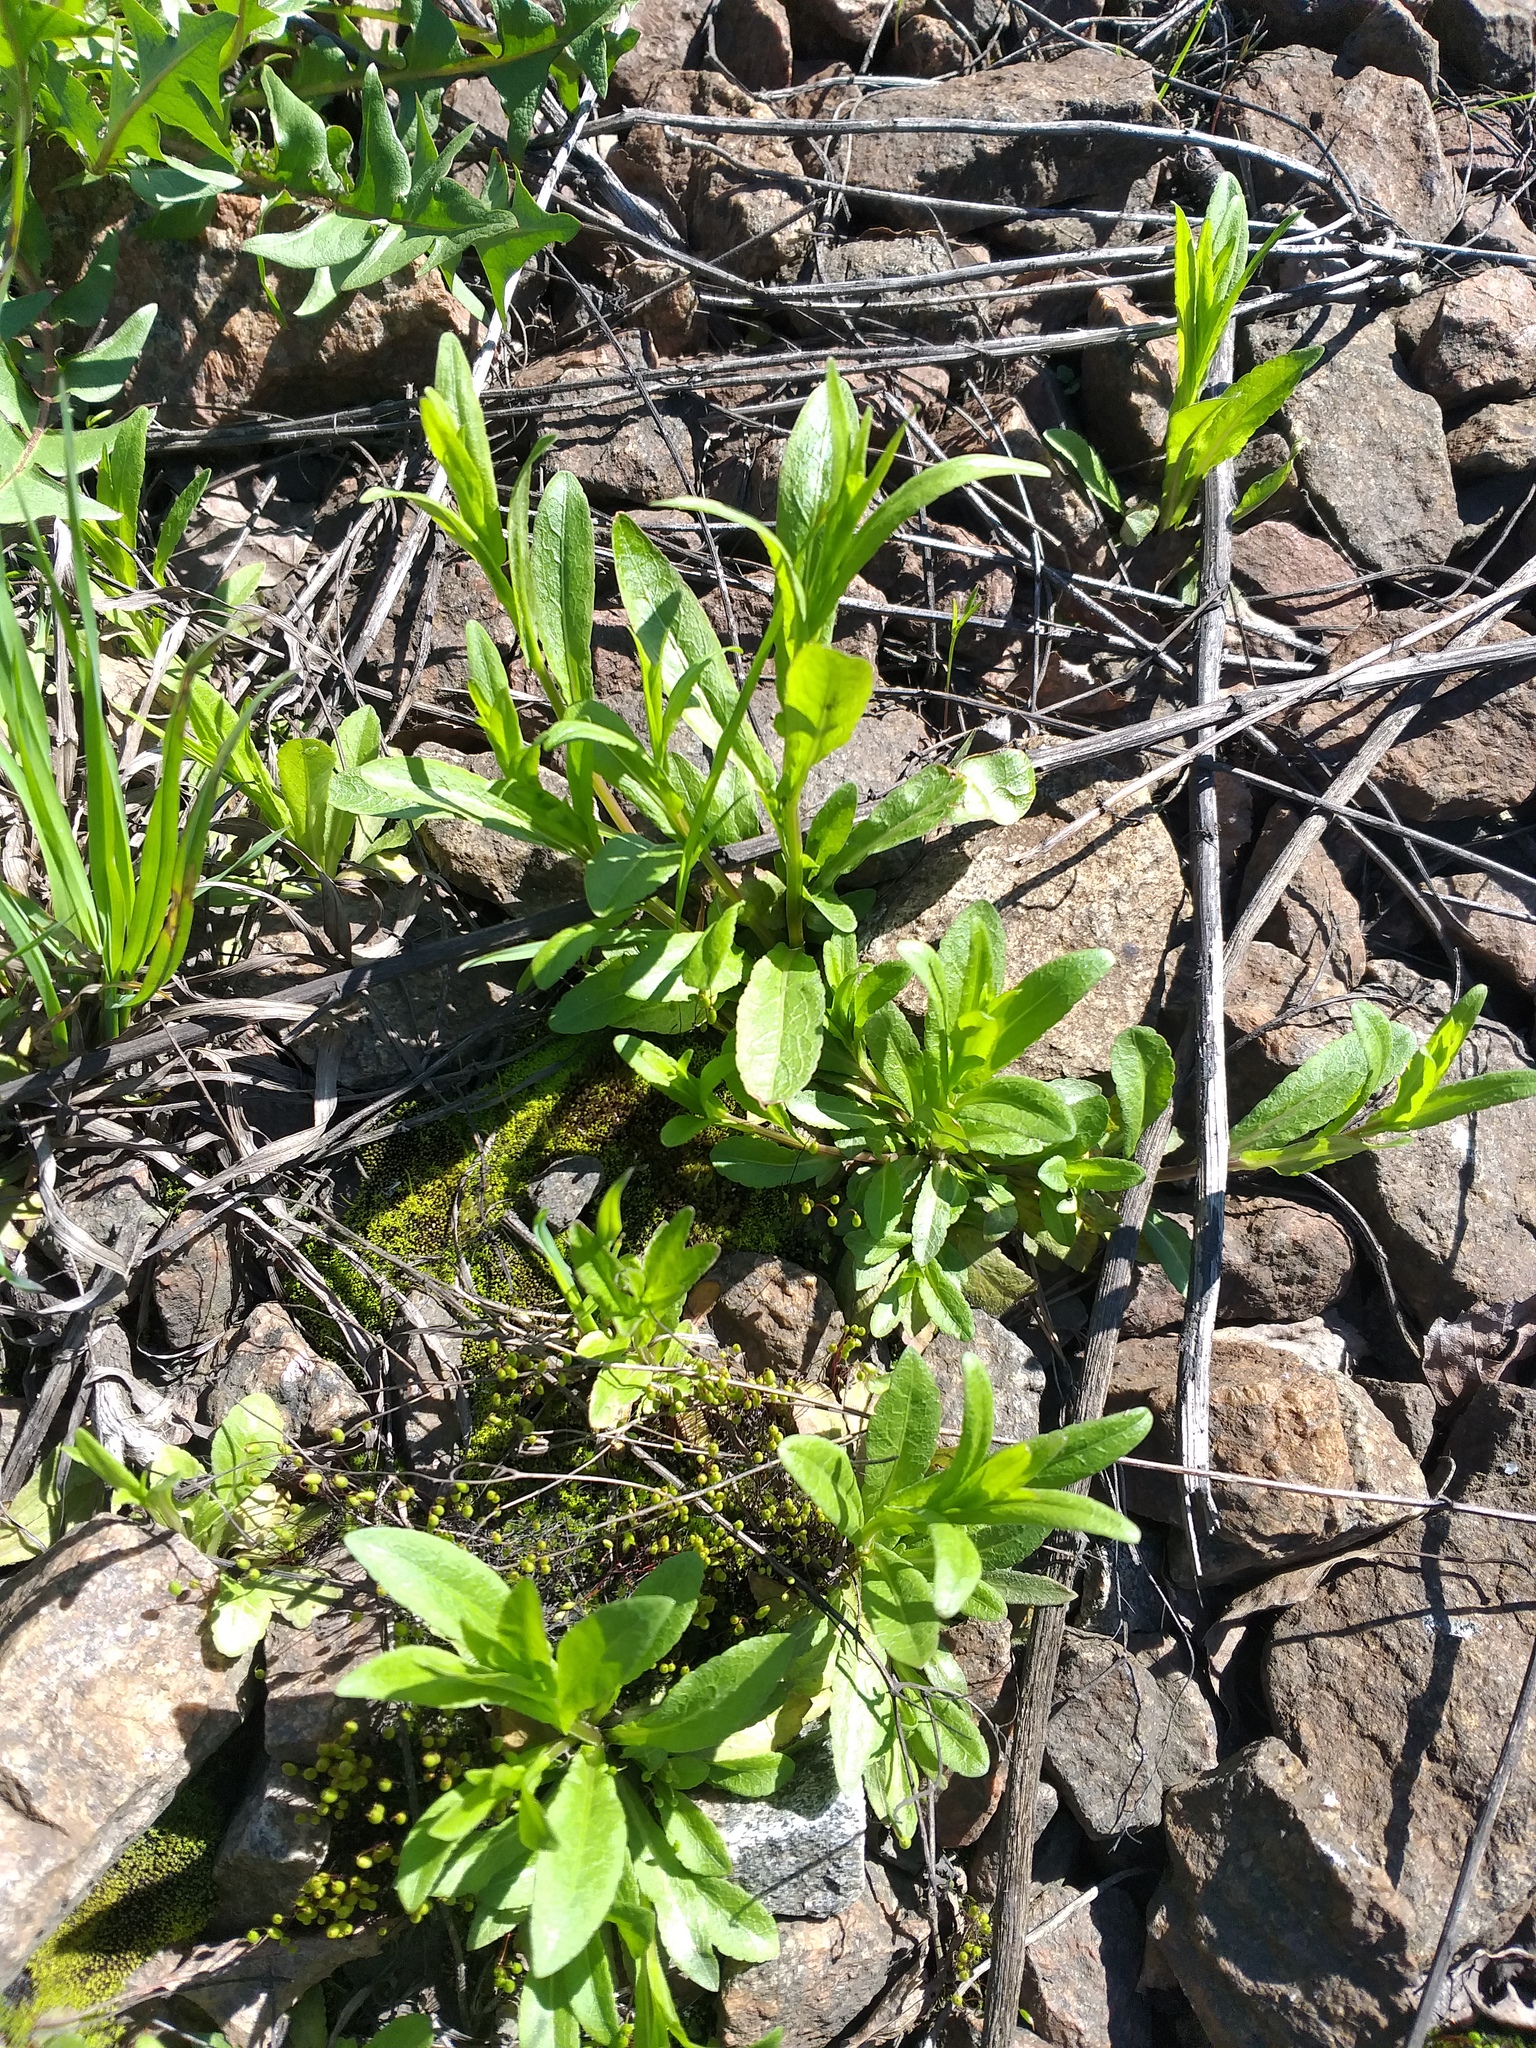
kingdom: Plantae
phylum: Tracheophyta
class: Magnoliopsida
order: Asterales
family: Campanulaceae
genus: Campanula
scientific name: Campanula patula
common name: Spreading bellflower
